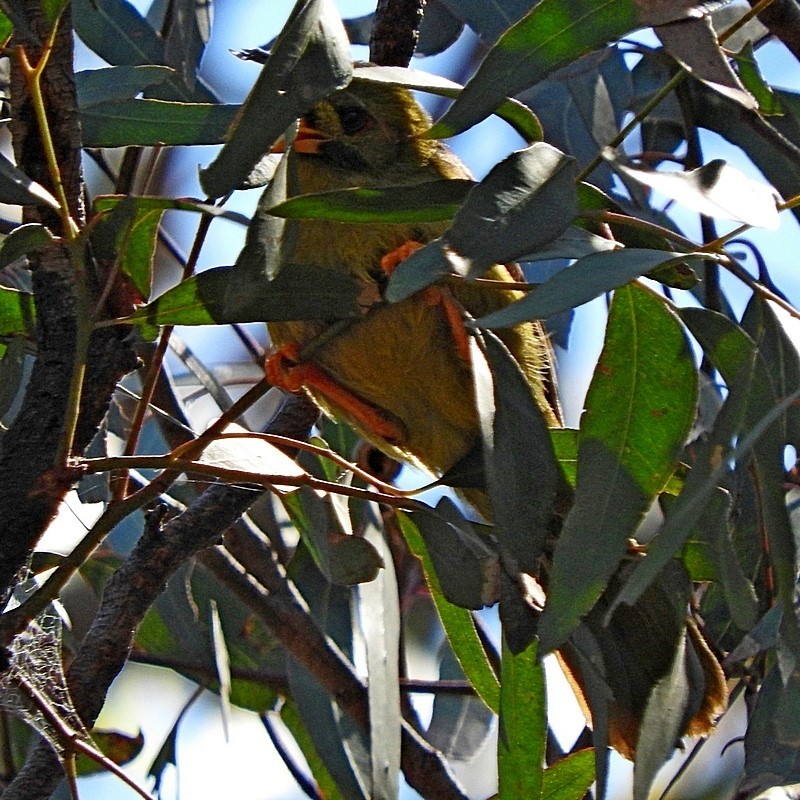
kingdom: Animalia
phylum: Chordata
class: Aves
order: Passeriformes
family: Meliphagidae
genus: Manorina
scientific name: Manorina melanophrys
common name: Bell miner
